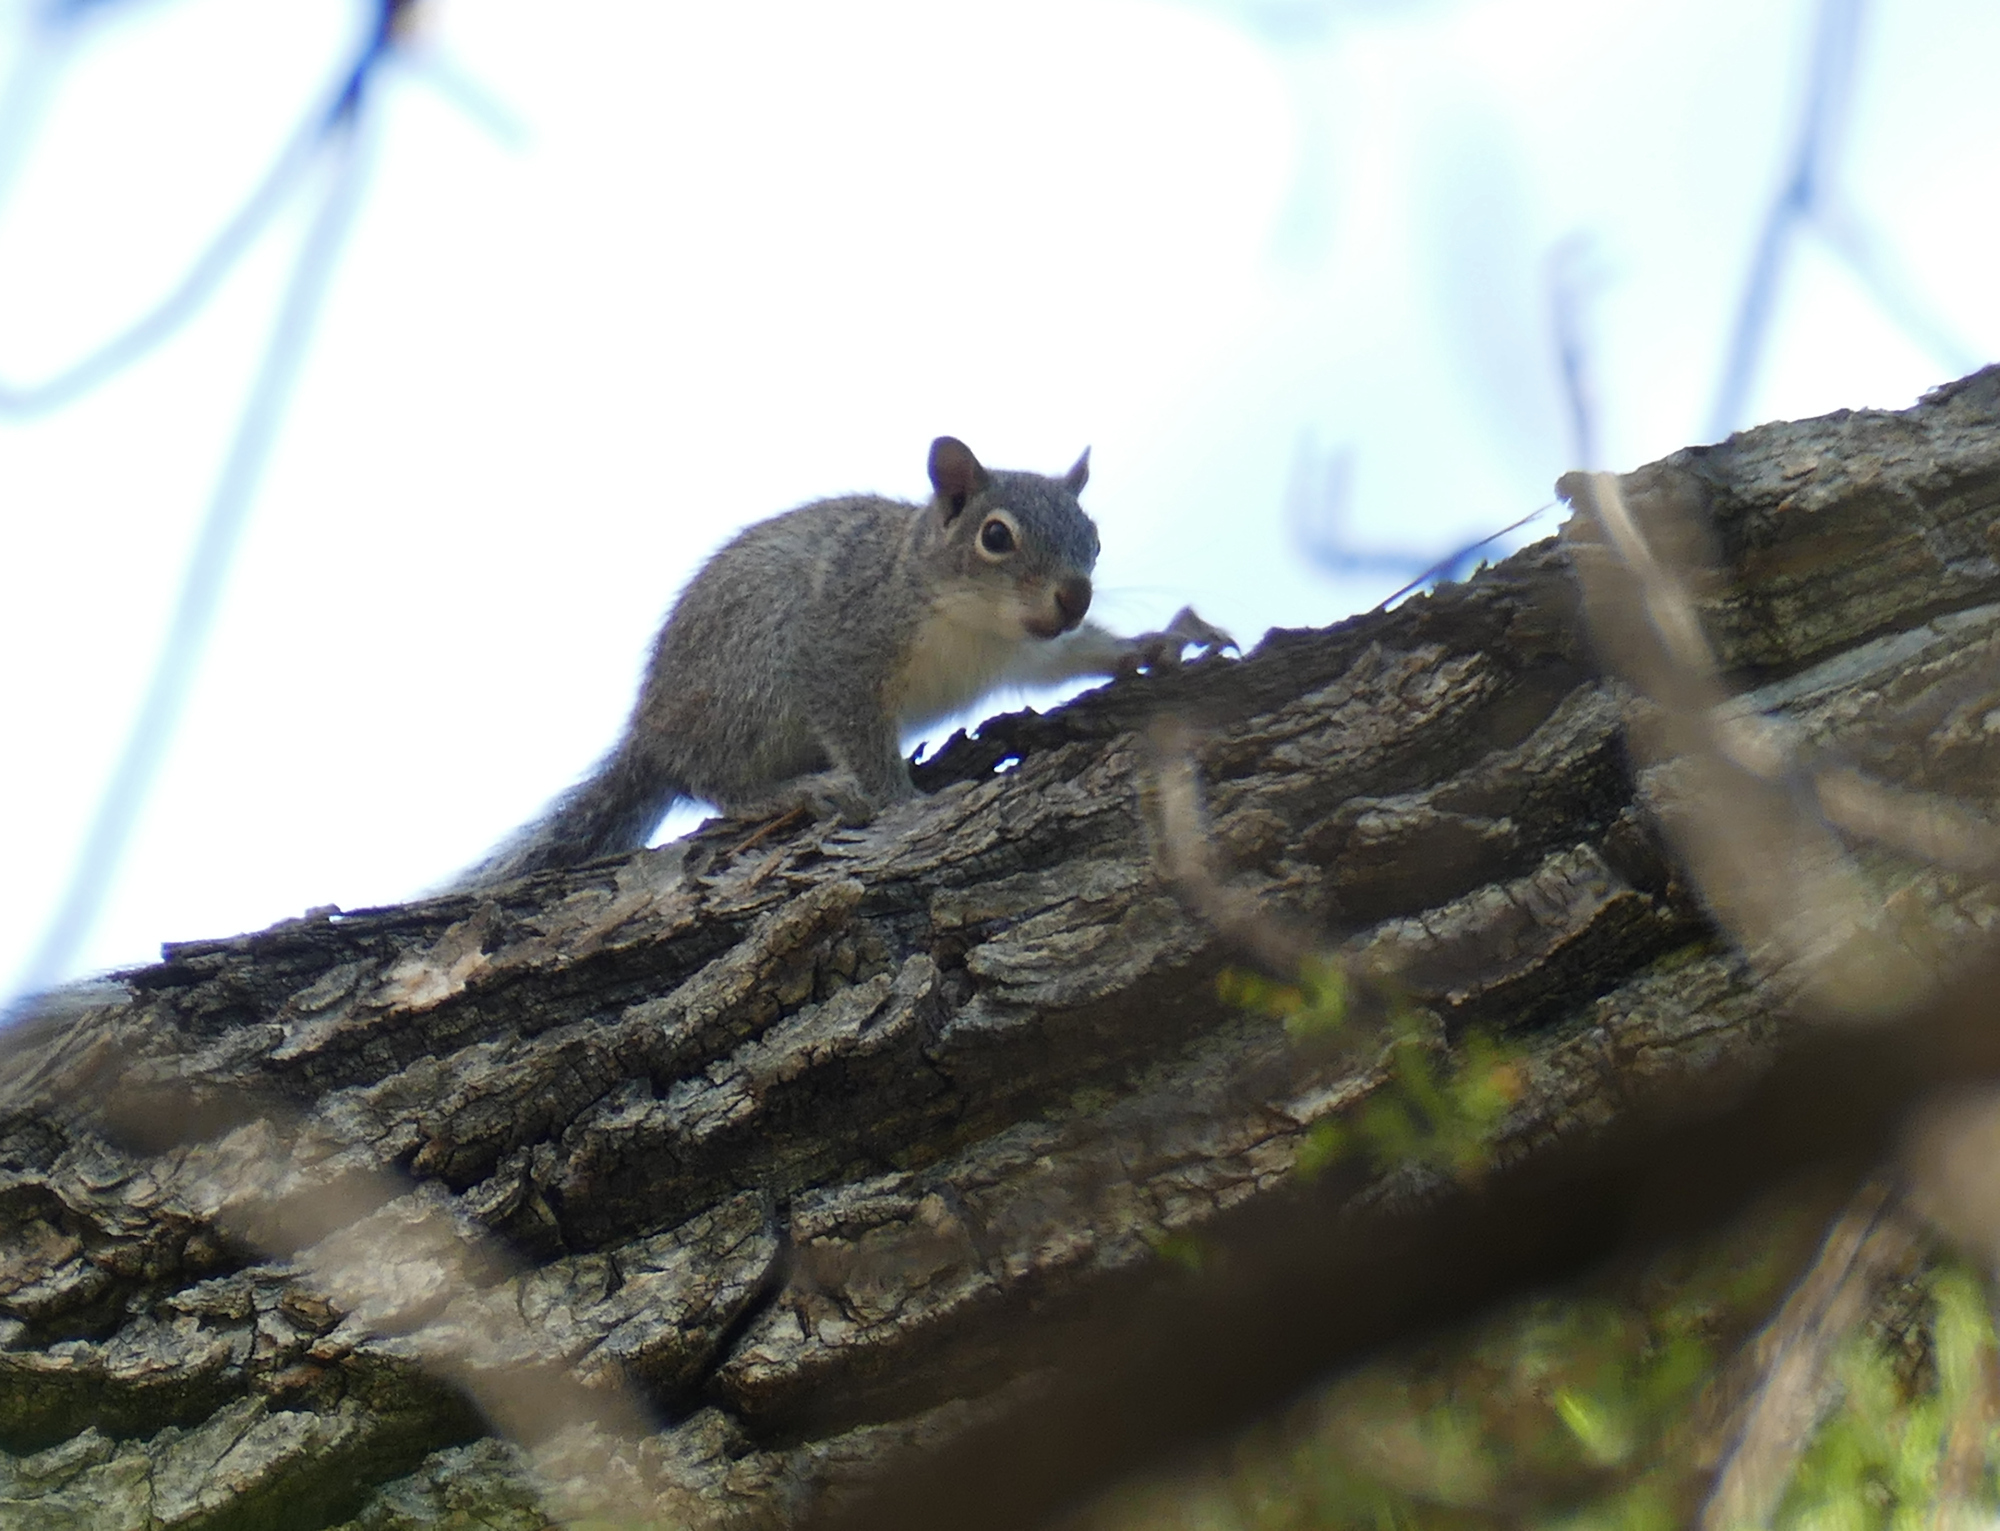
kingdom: Animalia
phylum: Chordata
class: Mammalia
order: Rodentia
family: Sciuridae
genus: Sciurus
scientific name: Sciurus arizonensis
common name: Arizona gray squirrel
